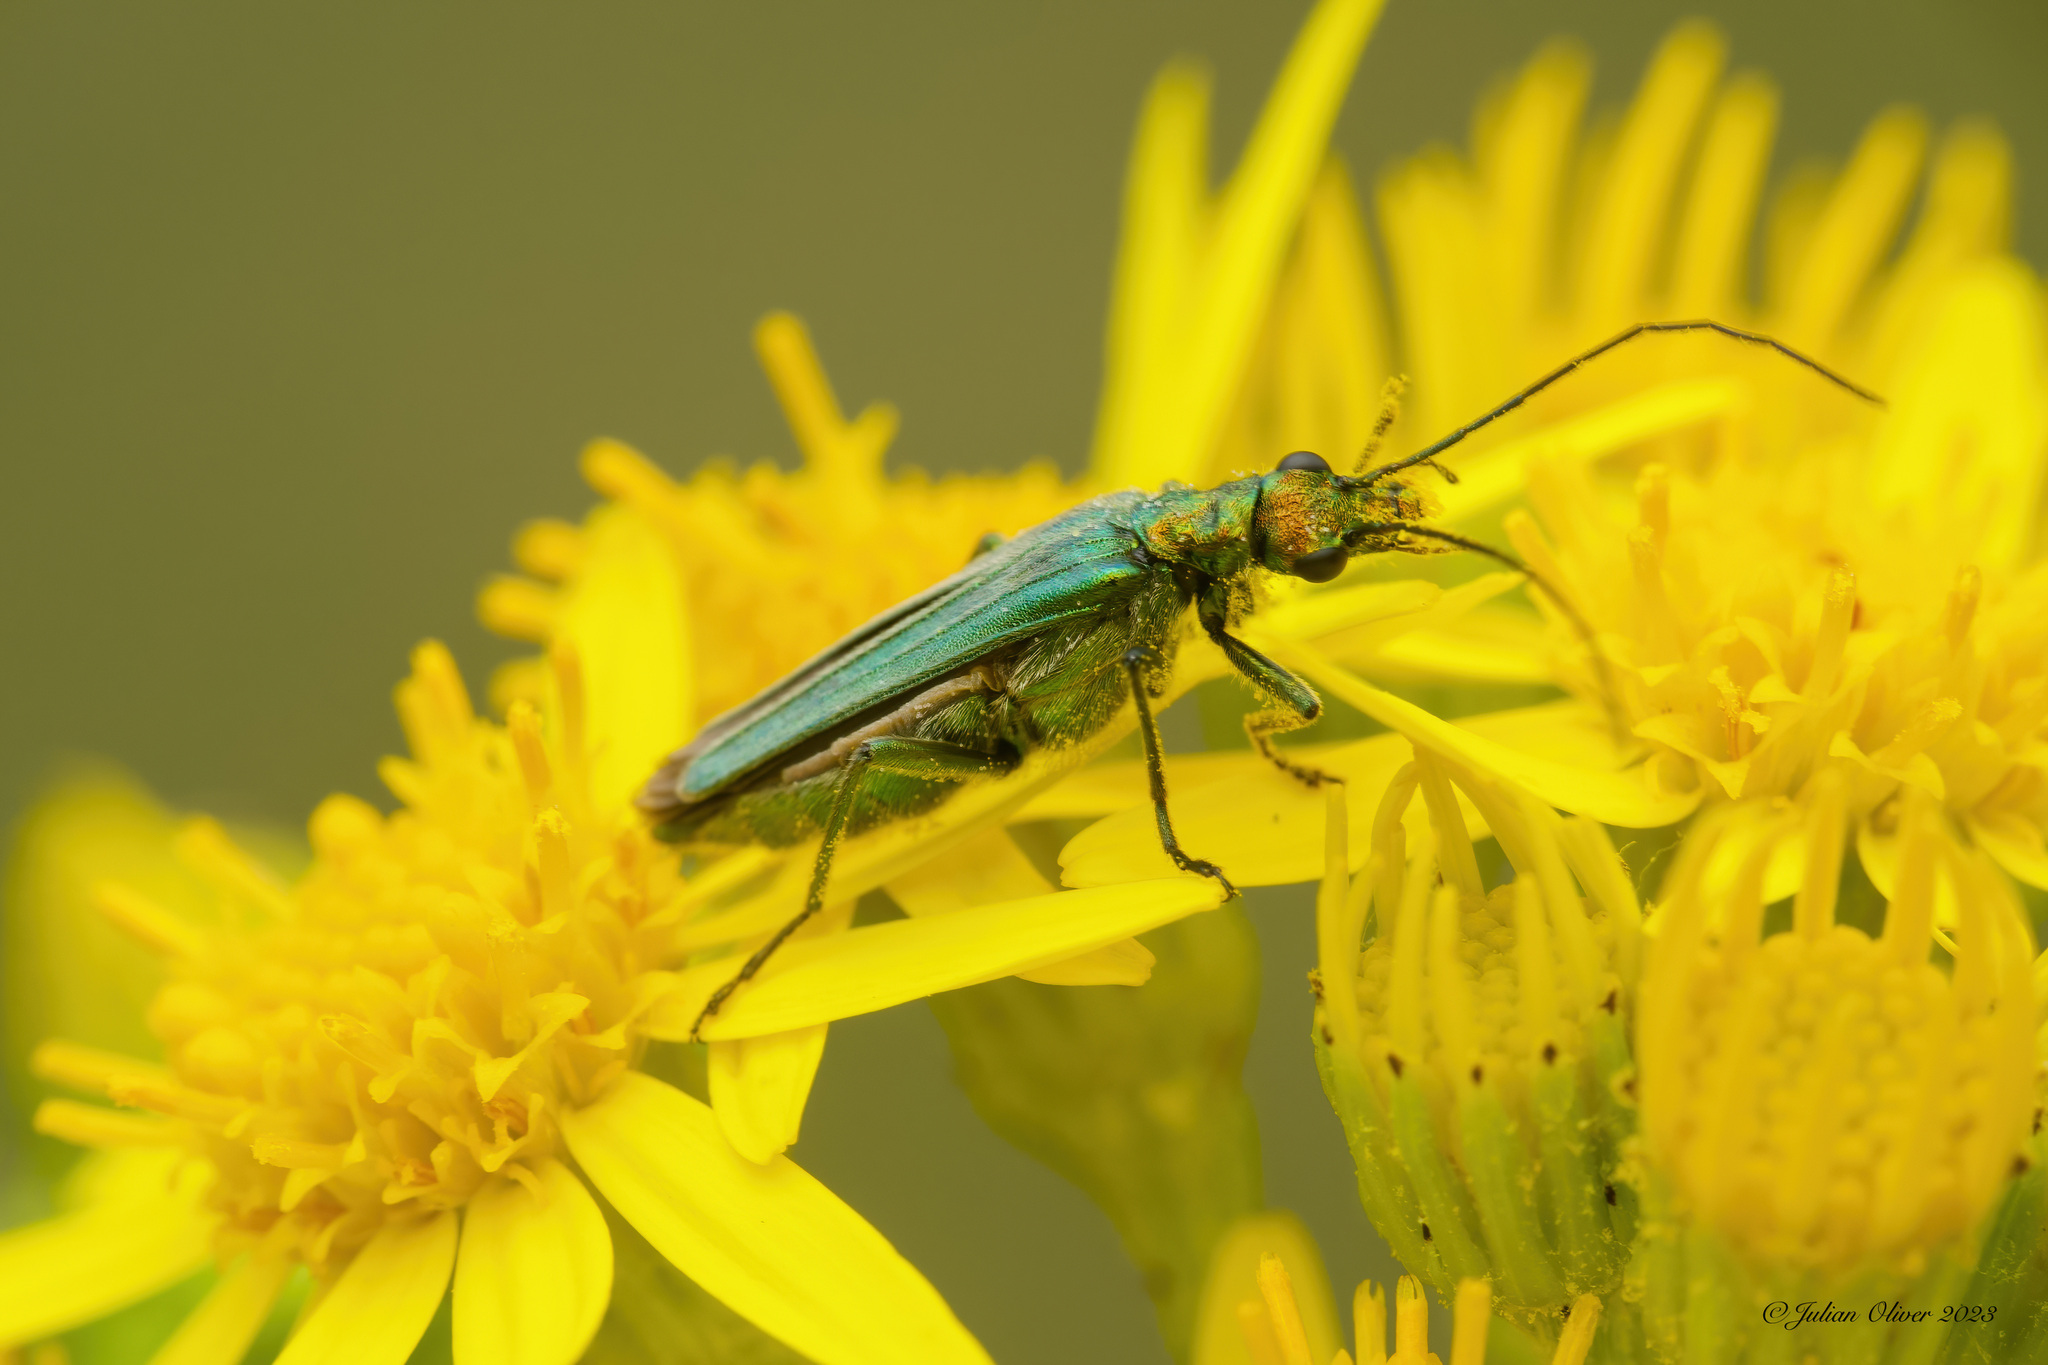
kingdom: Animalia
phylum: Arthropoda
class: Insecta
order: Coleoptera
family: Oedemeridae
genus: Oedemera
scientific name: Oedemera nobilis
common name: Swollen-thighed beetle
